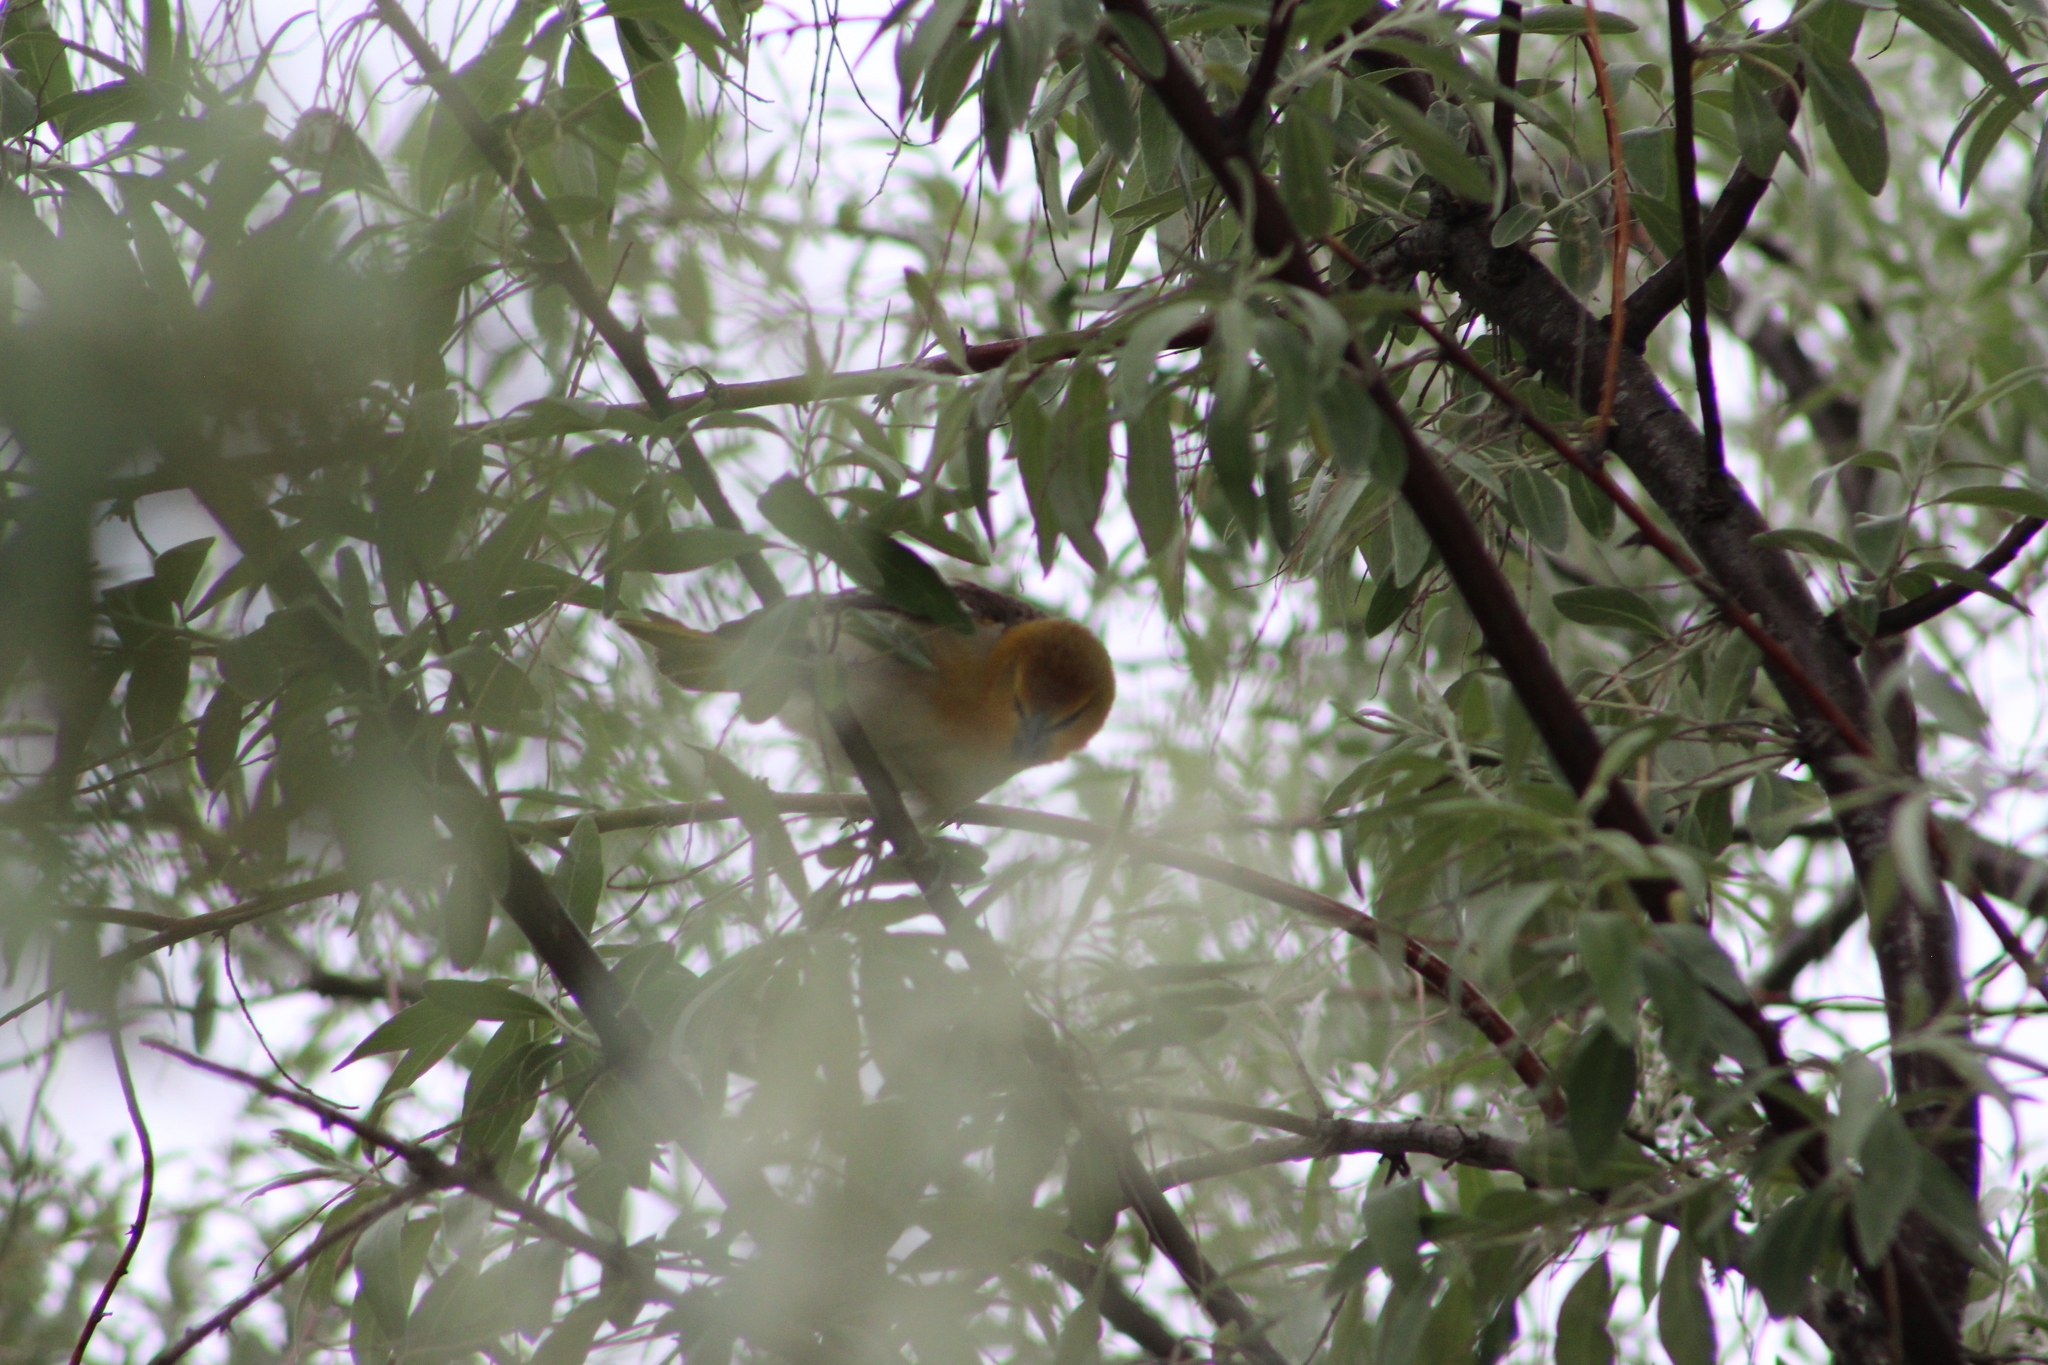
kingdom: Animalia
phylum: Chordata
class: Aves
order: Passeriformes
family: Icteridae
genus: Icterus
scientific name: Icterus bullockii
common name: Bullock's oriole
